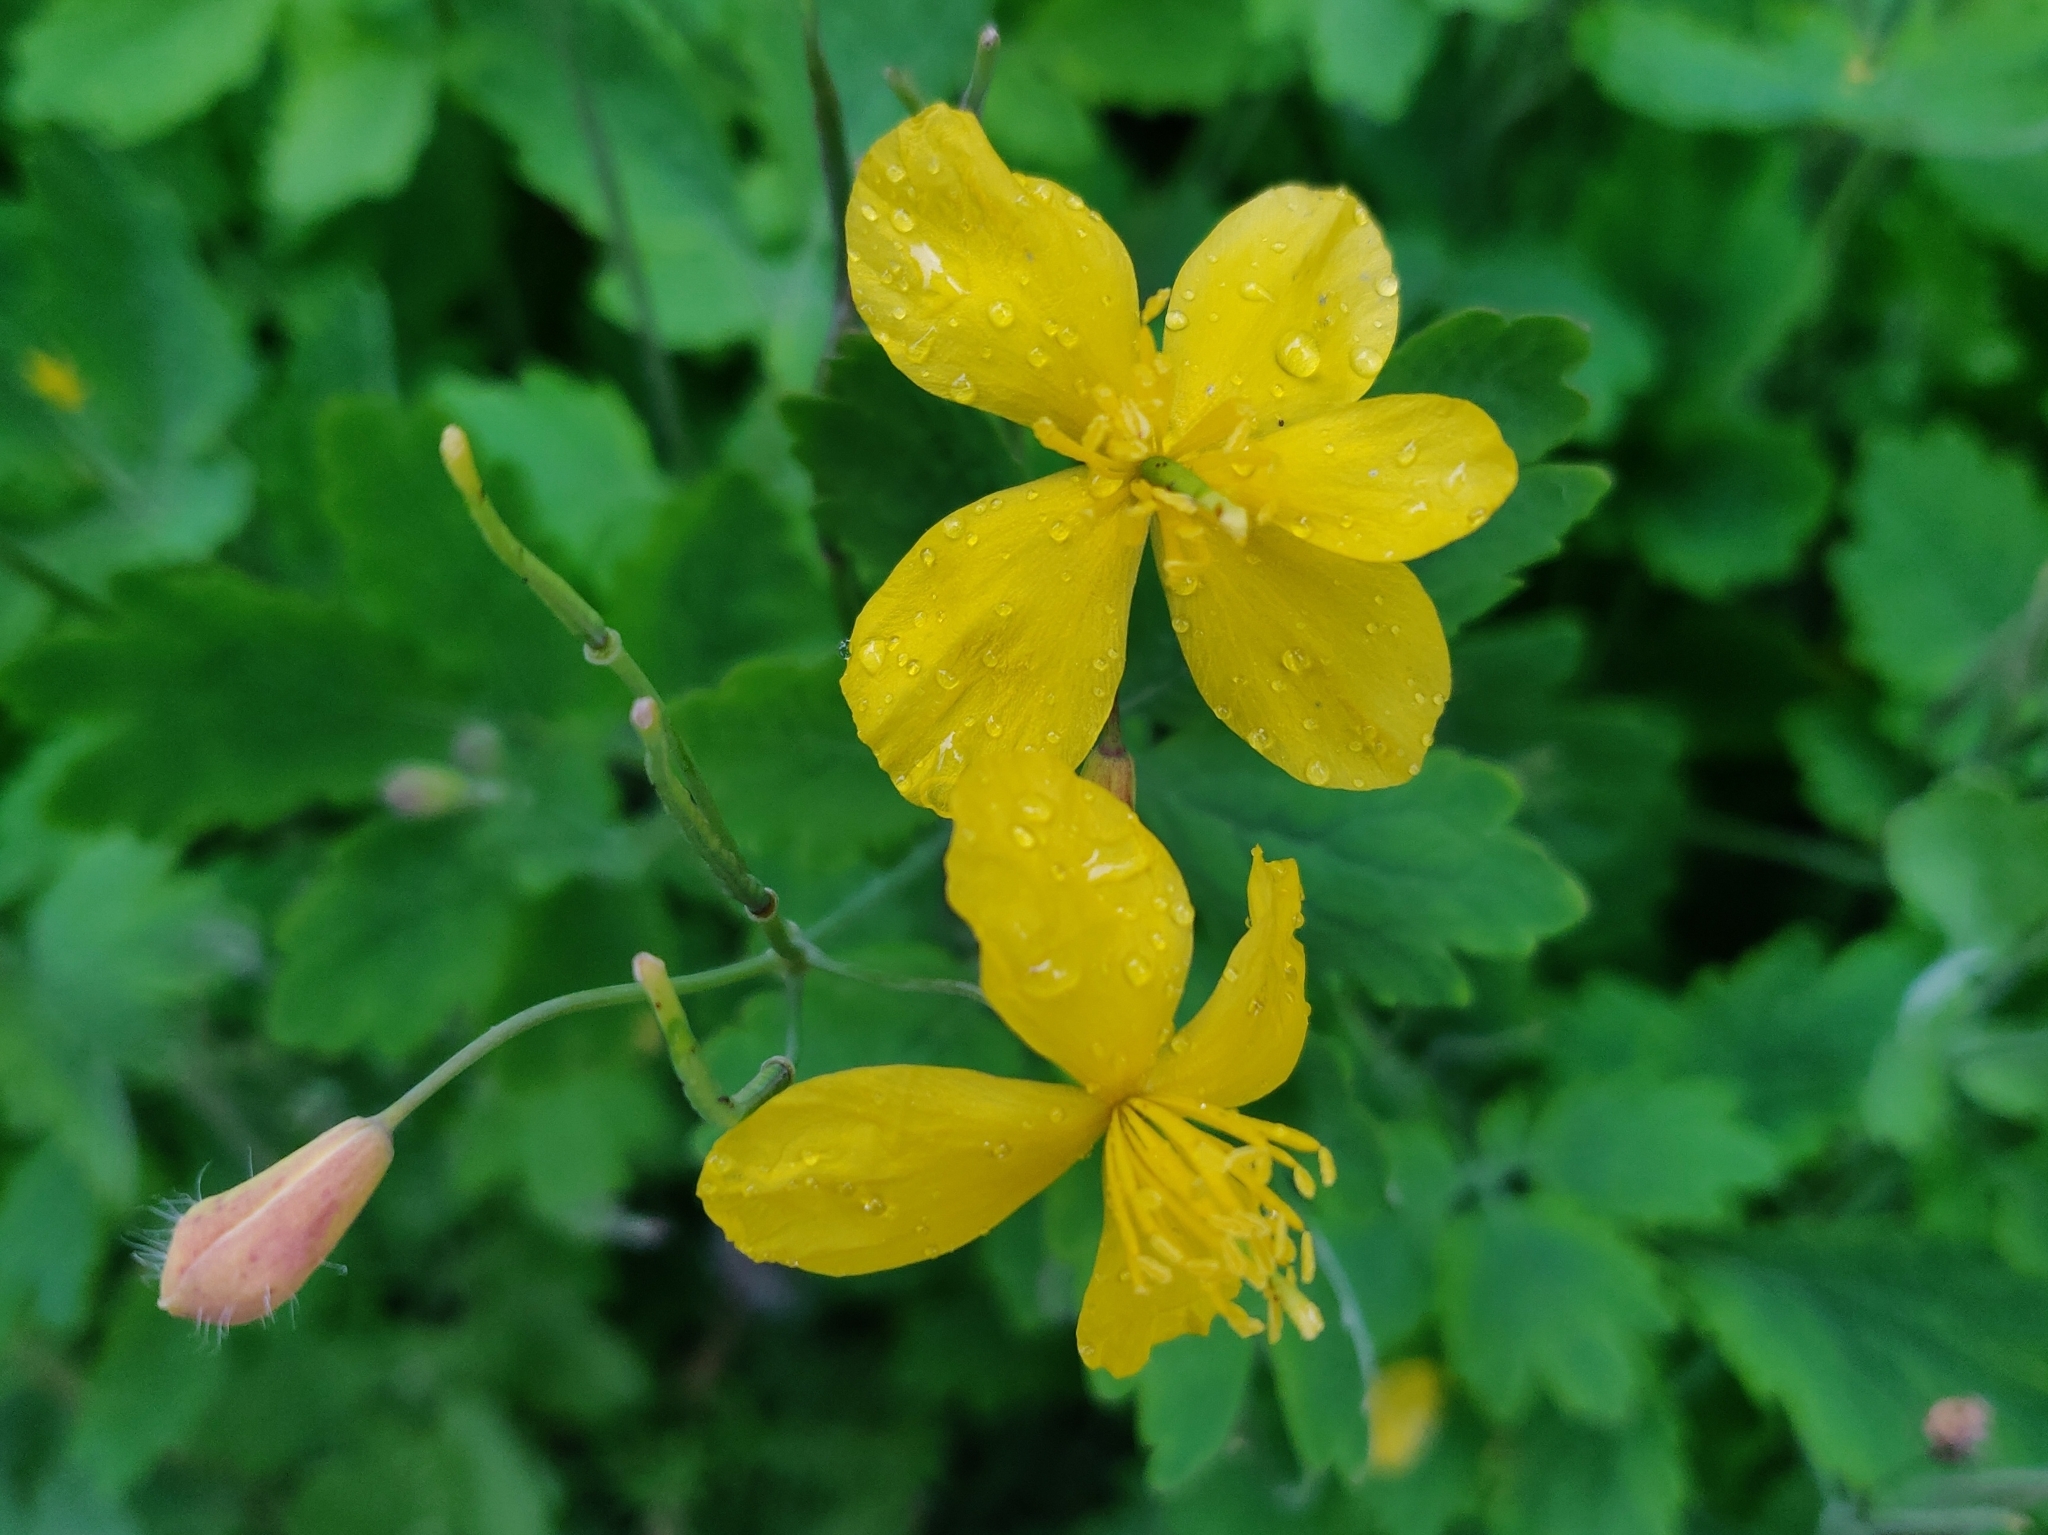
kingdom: Plantae
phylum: Tracheophyta
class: Magnoliopsida
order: Ranunculales
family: Papaveraceae
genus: Chelidonium
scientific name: Chelidonium majus
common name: Greater celandine
